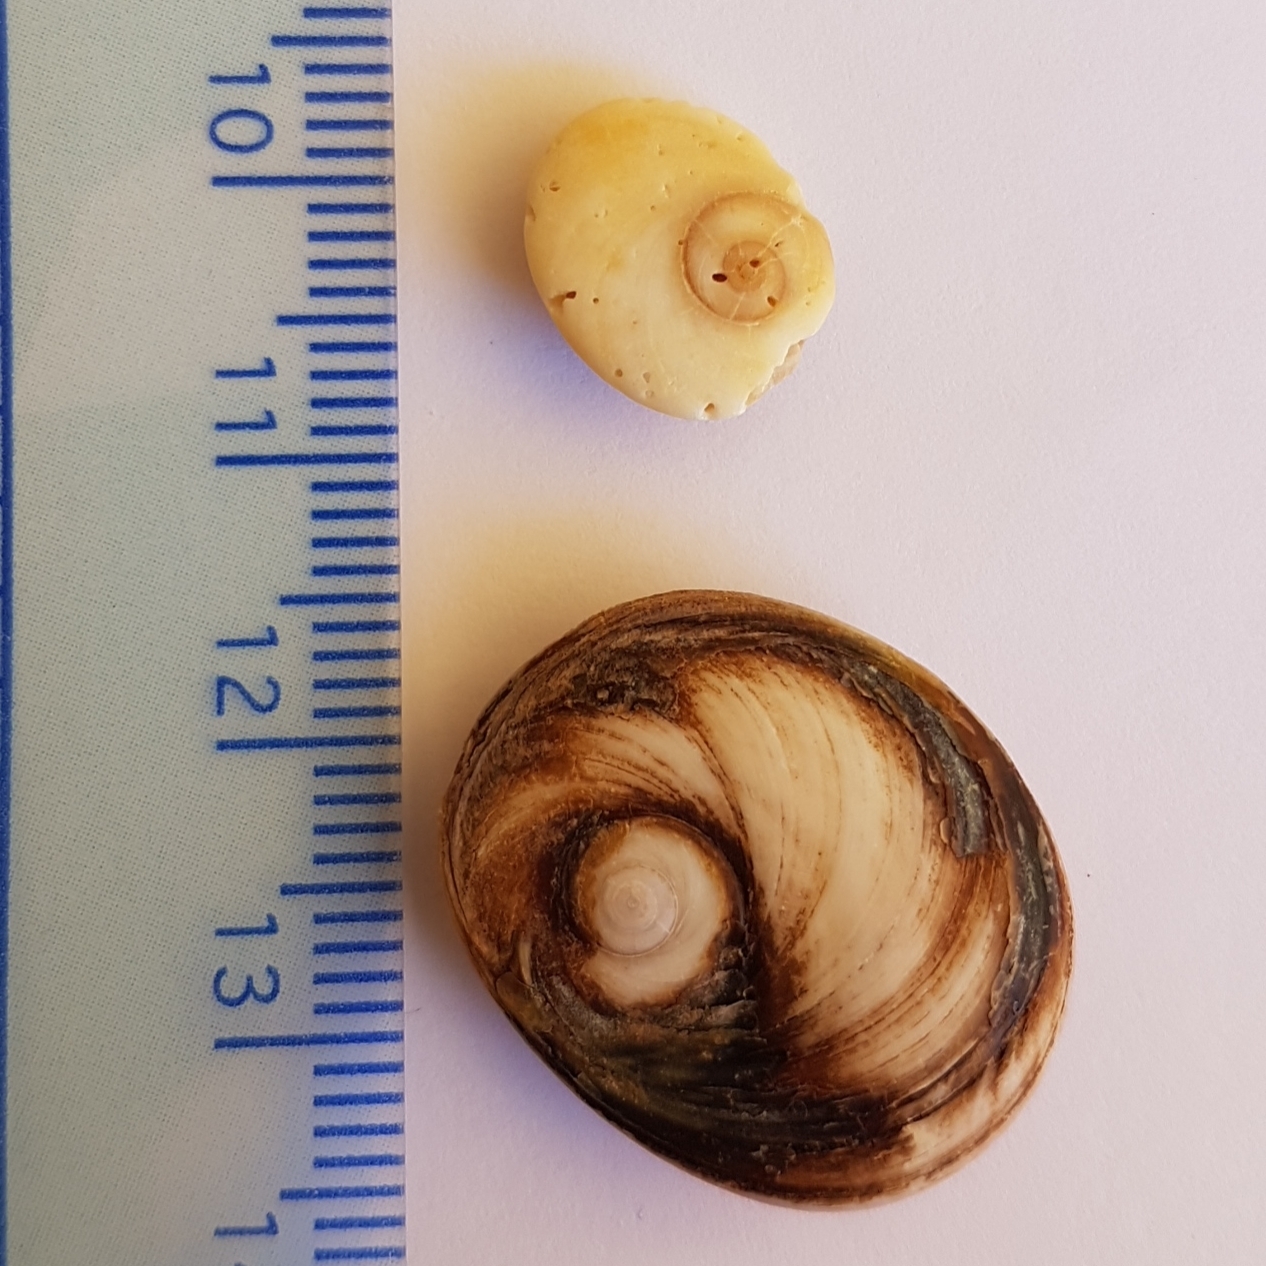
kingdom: Animalia
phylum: Mollusca
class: Gastropoda
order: Trochida
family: Turbinidae
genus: Bolma
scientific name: Bolma rugosa
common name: Rough star shell
